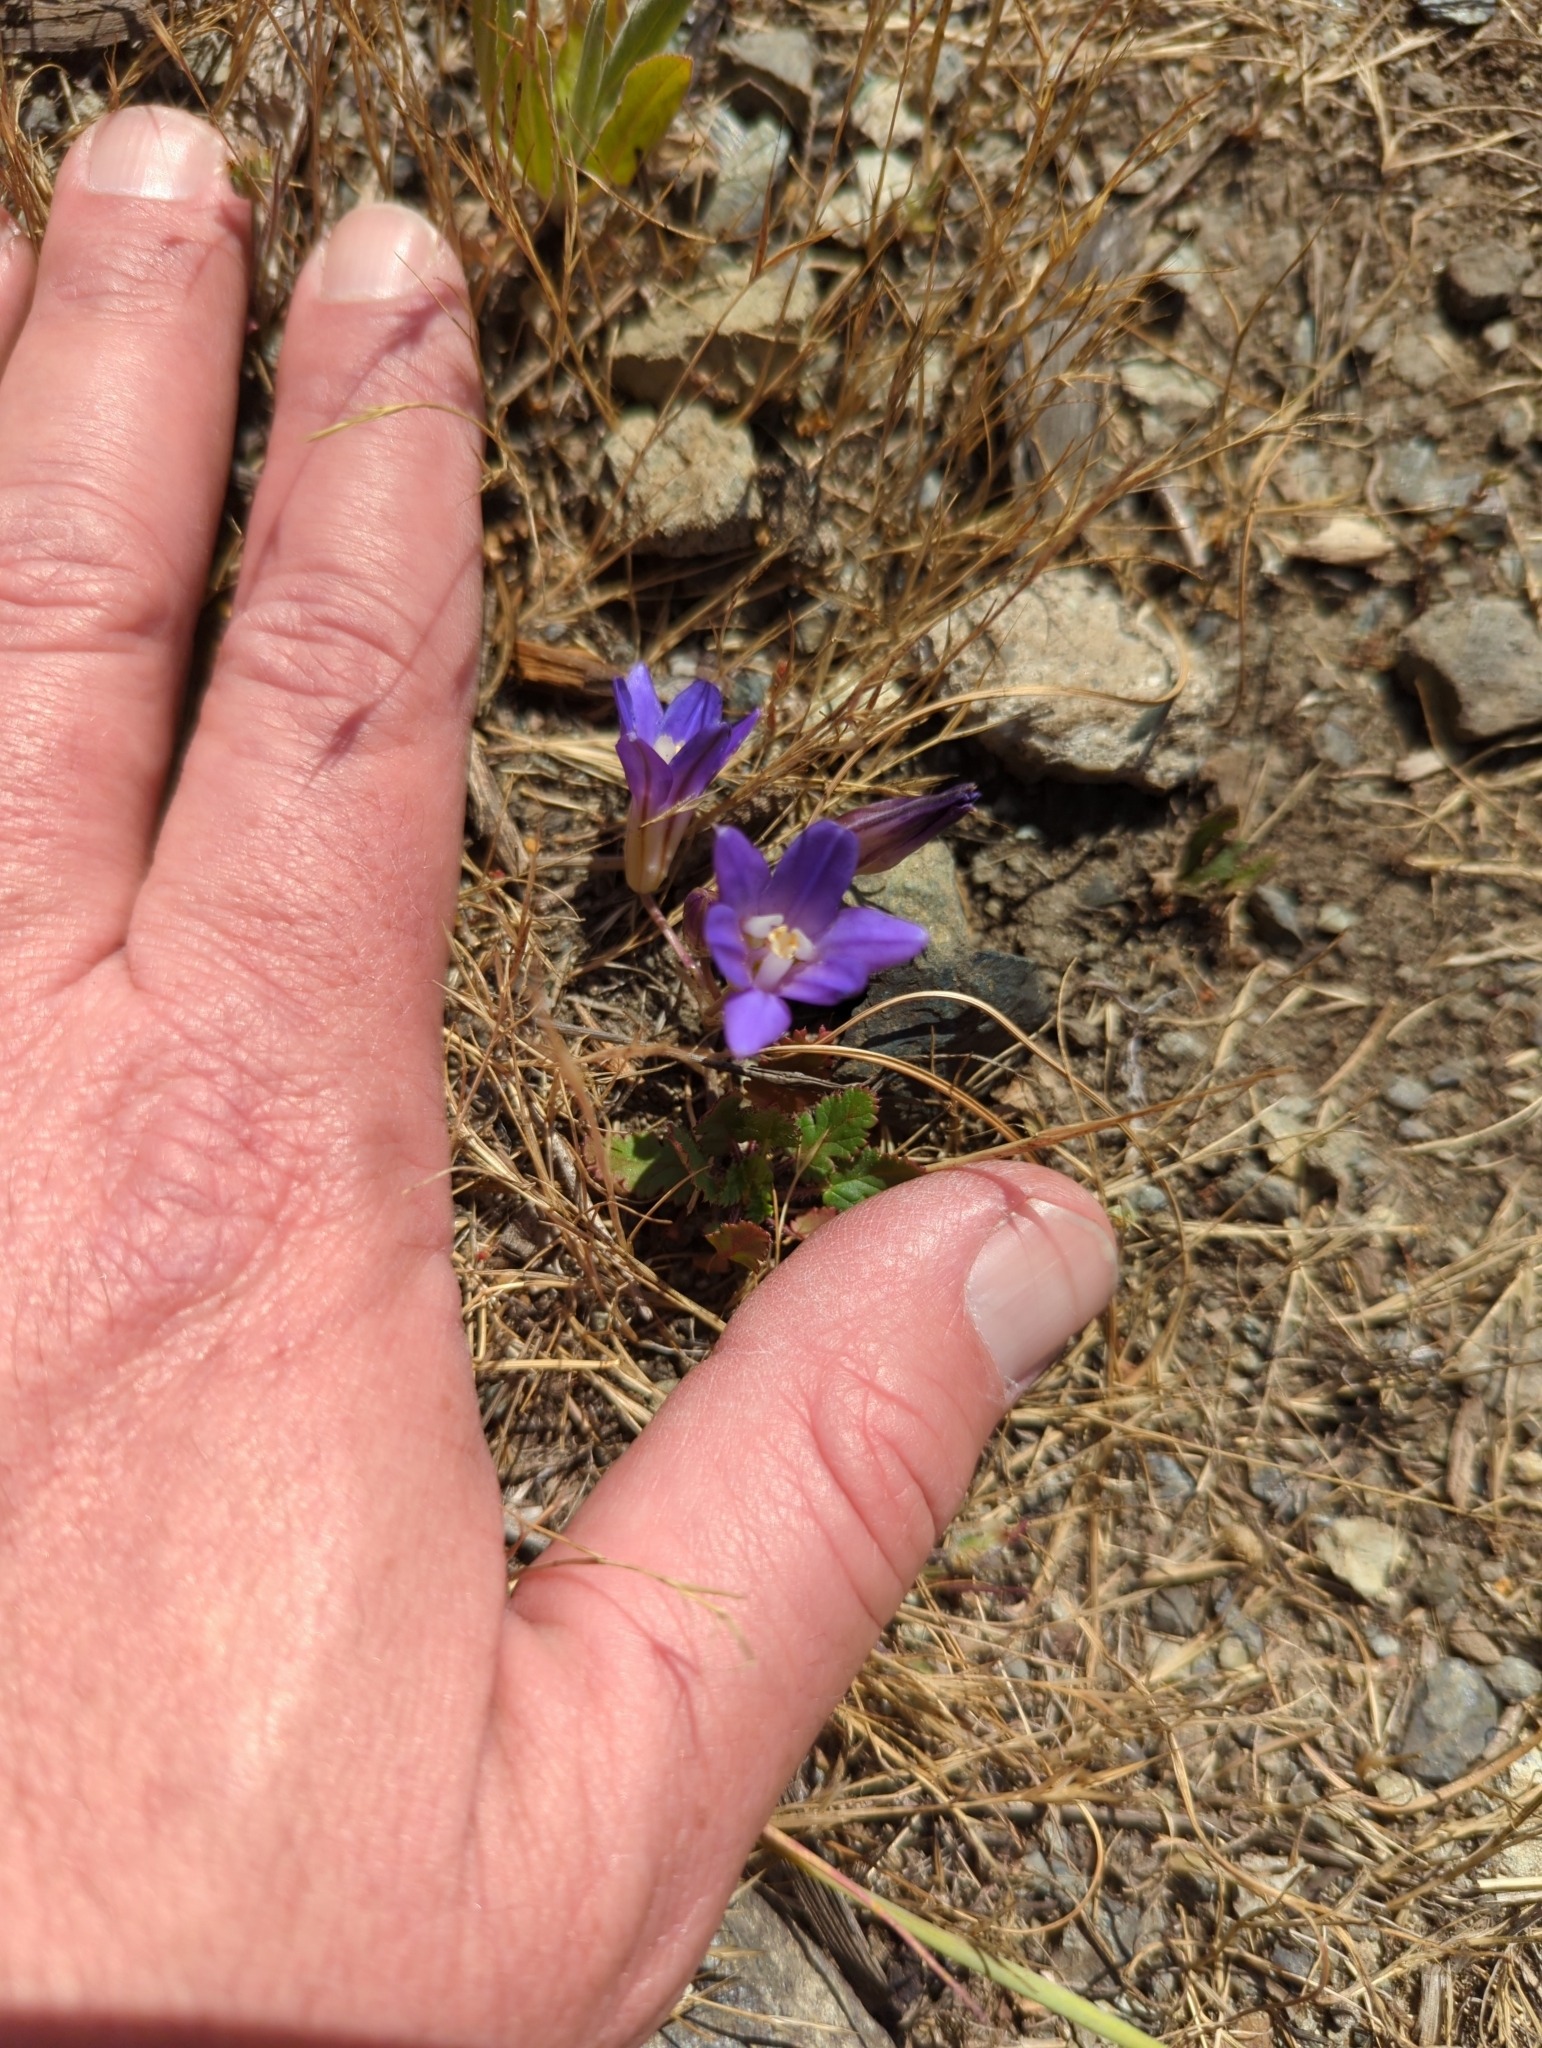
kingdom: Plantae
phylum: Tracheophyta
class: Liliopsida
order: Asparagales
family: Asparagaceae
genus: Brodiaea
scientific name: Brodiaea terrestris
